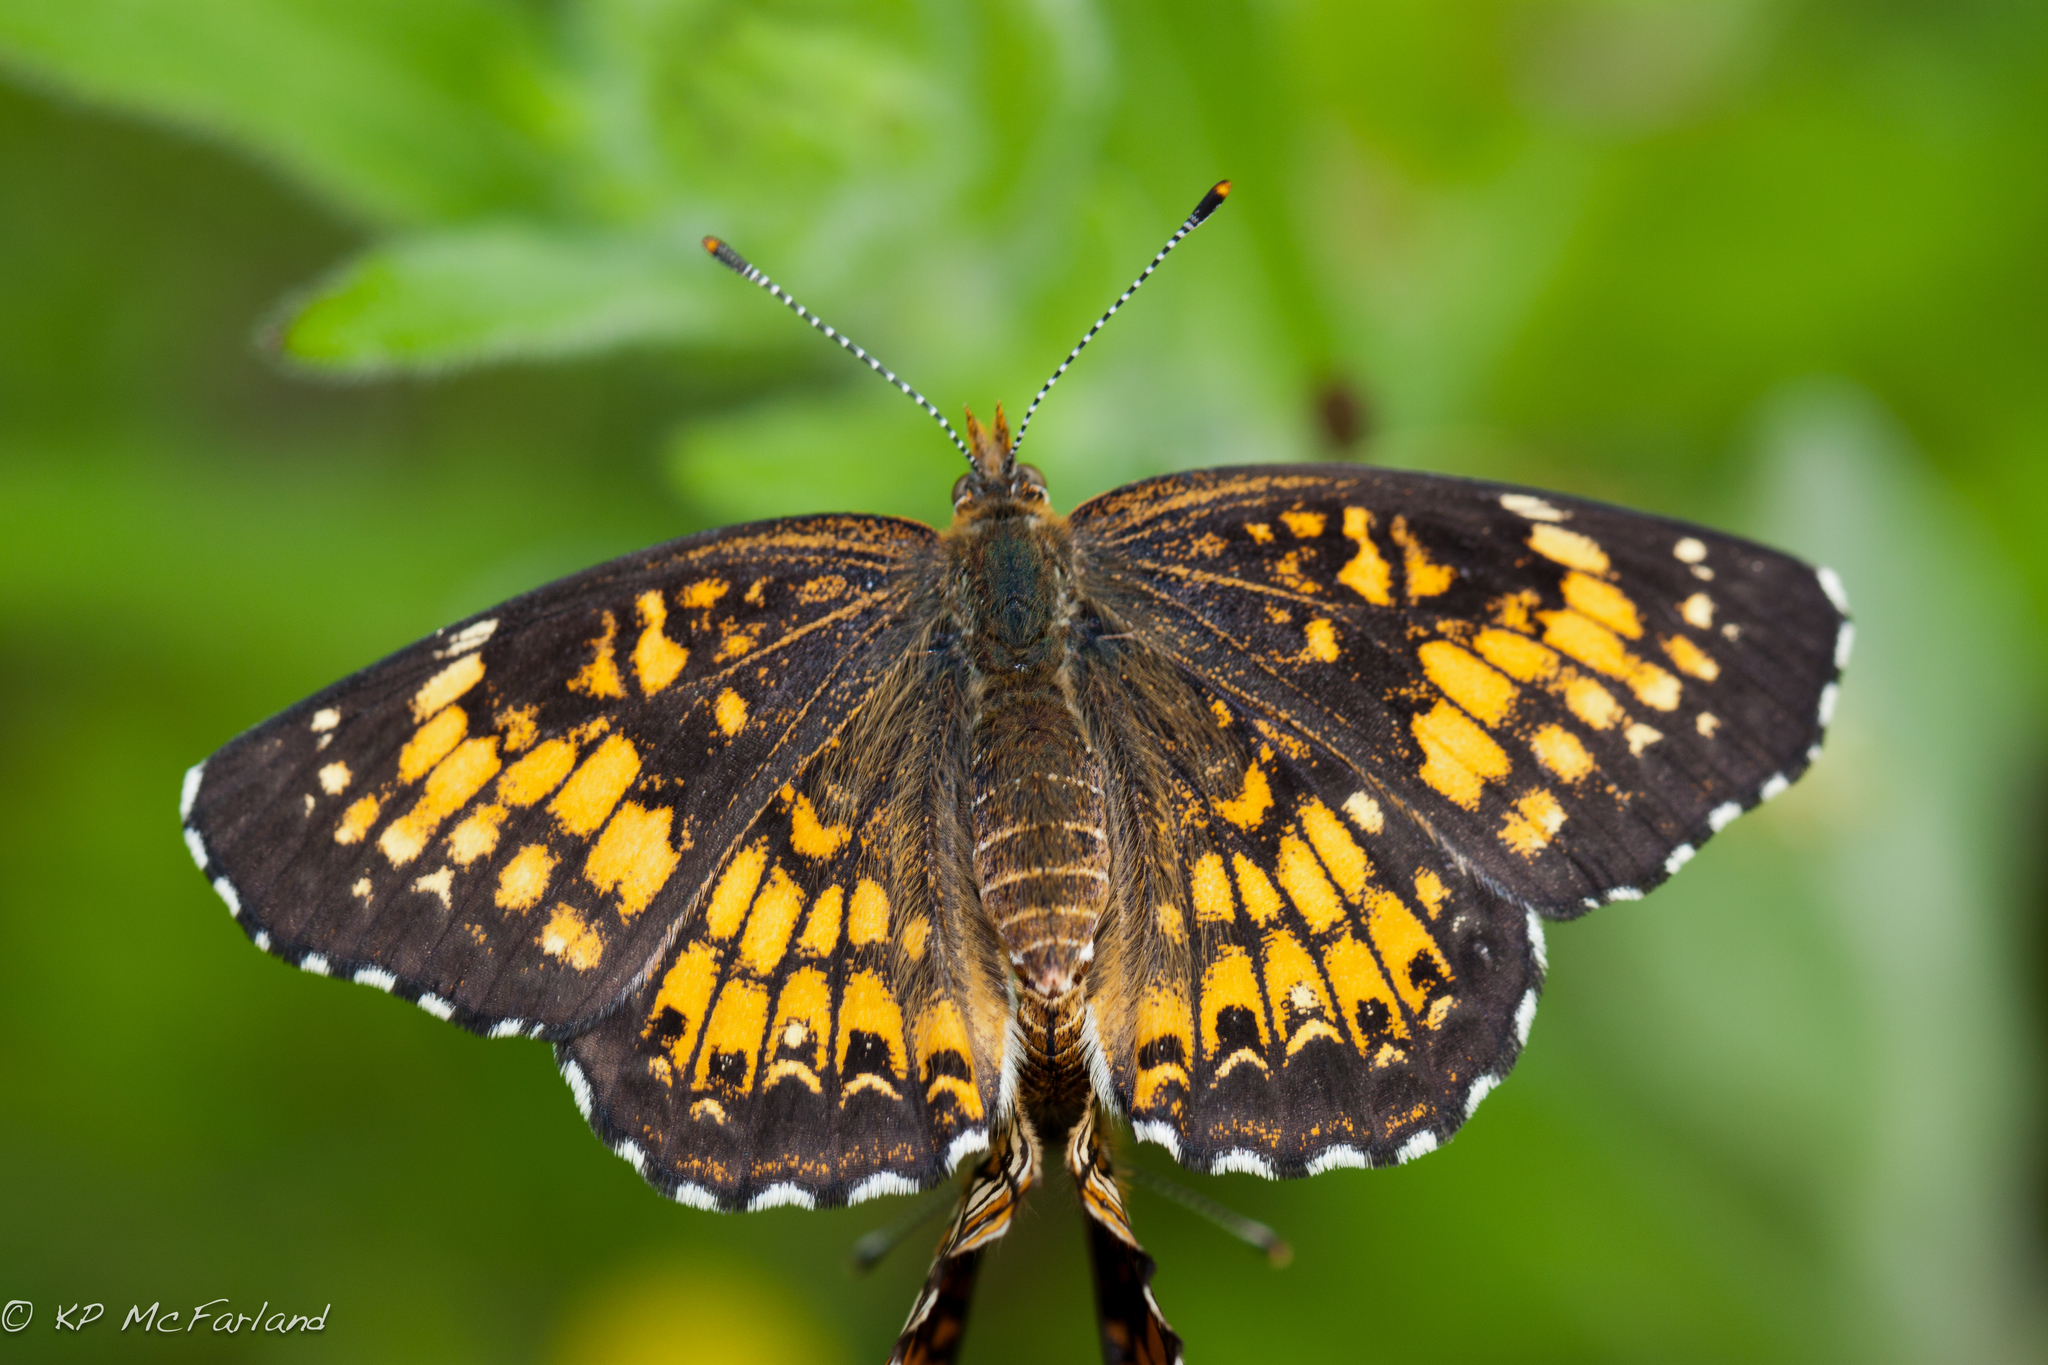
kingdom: Animalia
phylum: Arthropoda
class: Insecta
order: Lepidoptera
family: Nymphalidae
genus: Chlosyne
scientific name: Chlosyne harrisii
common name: Harris's checkerspot
